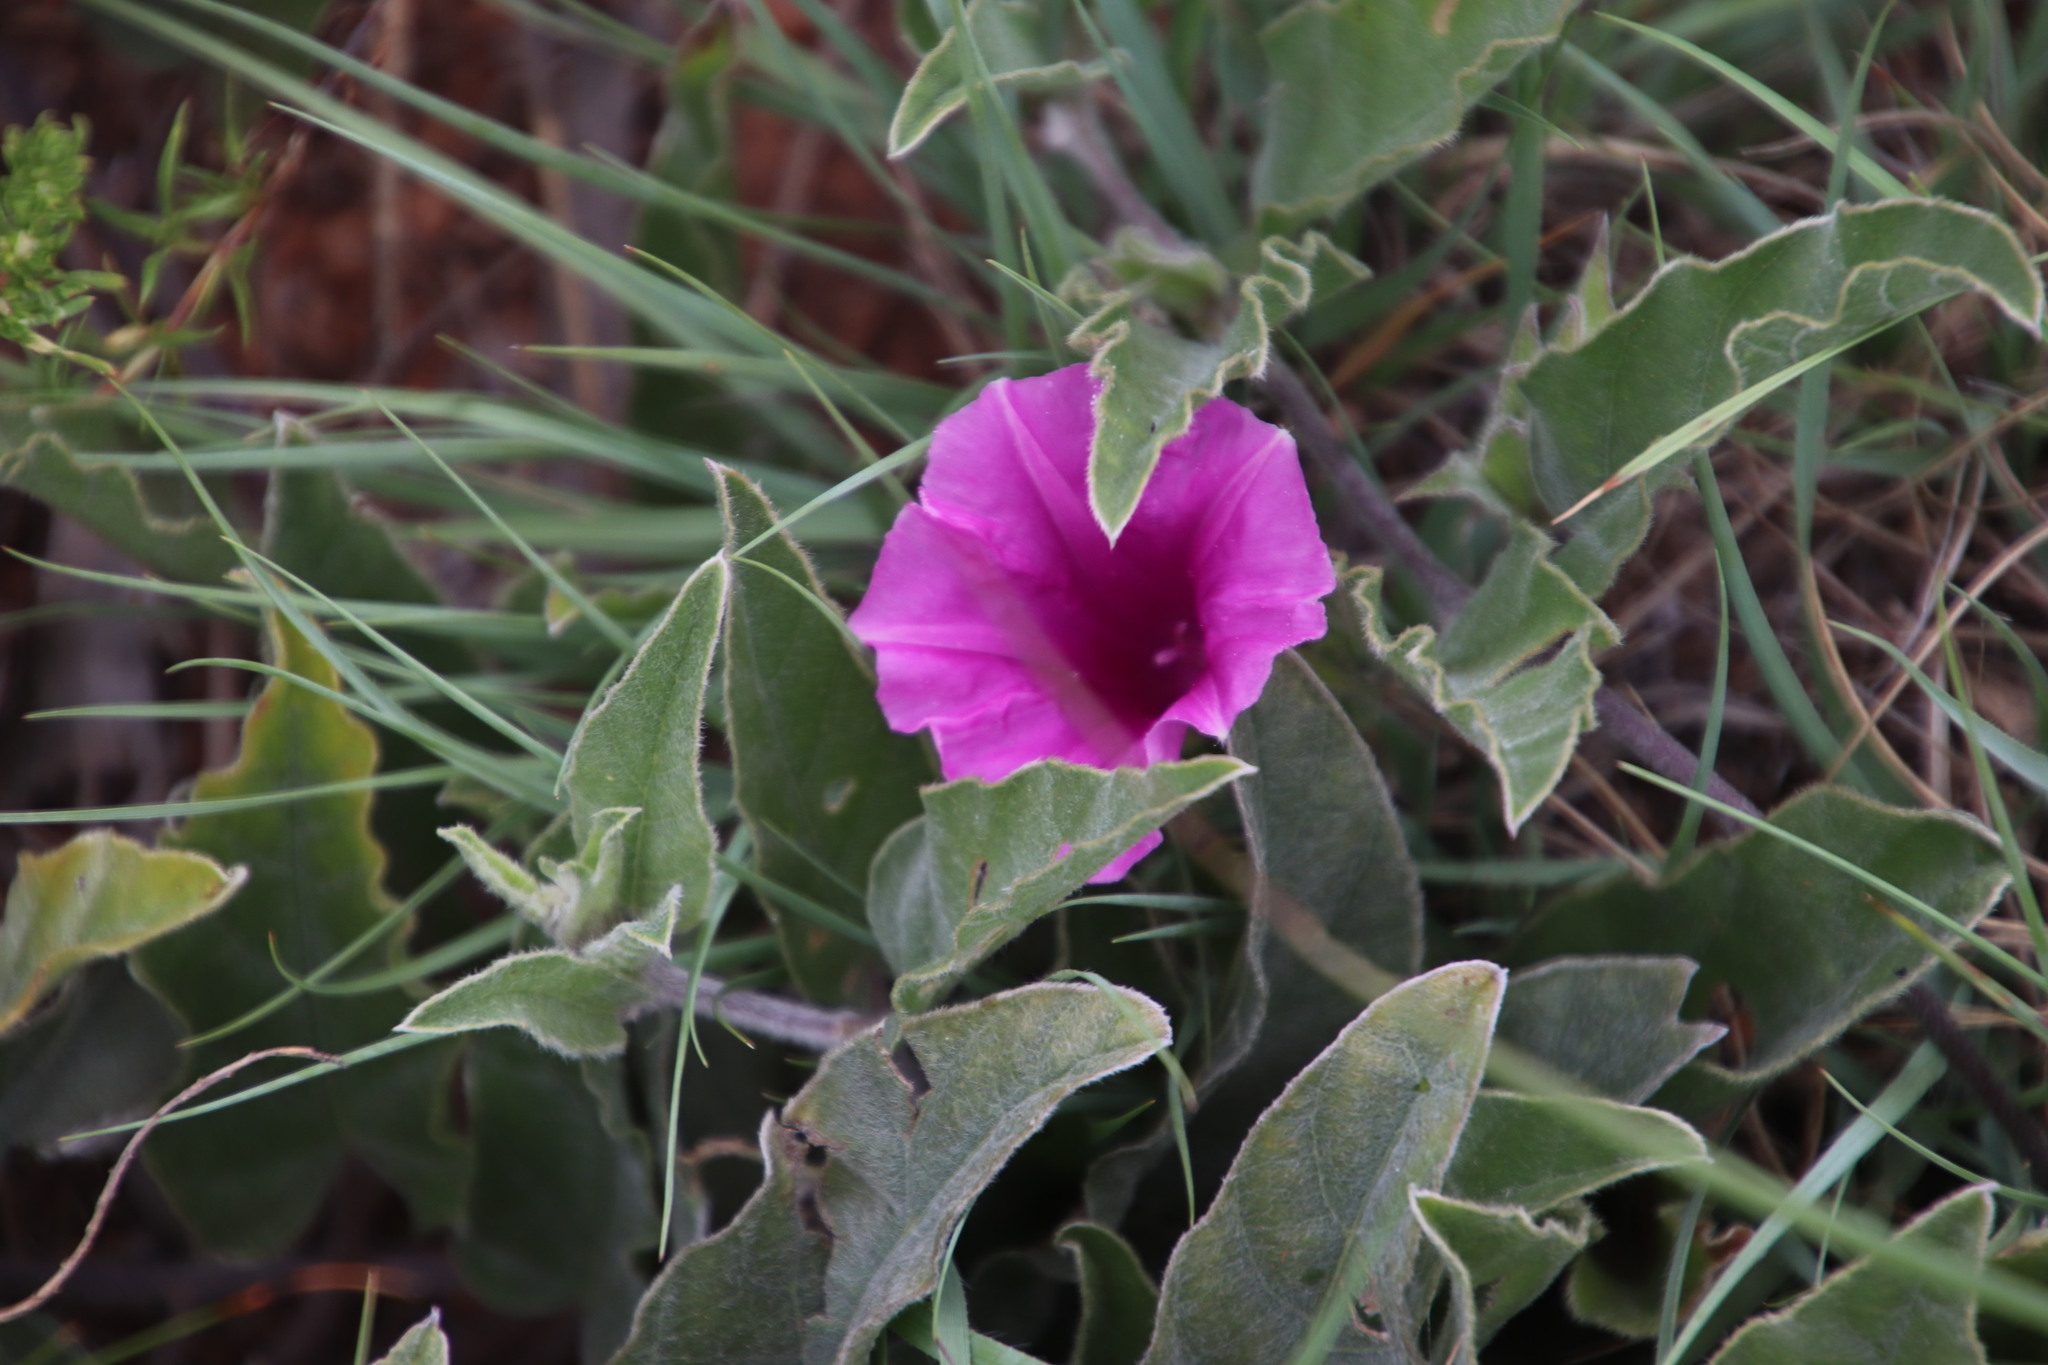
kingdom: Plantae
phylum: Tracheophyta
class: Magnoliopsida
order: Solanales
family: Convolvulaceae
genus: Ipomoea
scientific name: Ipomoea ommanneyi
